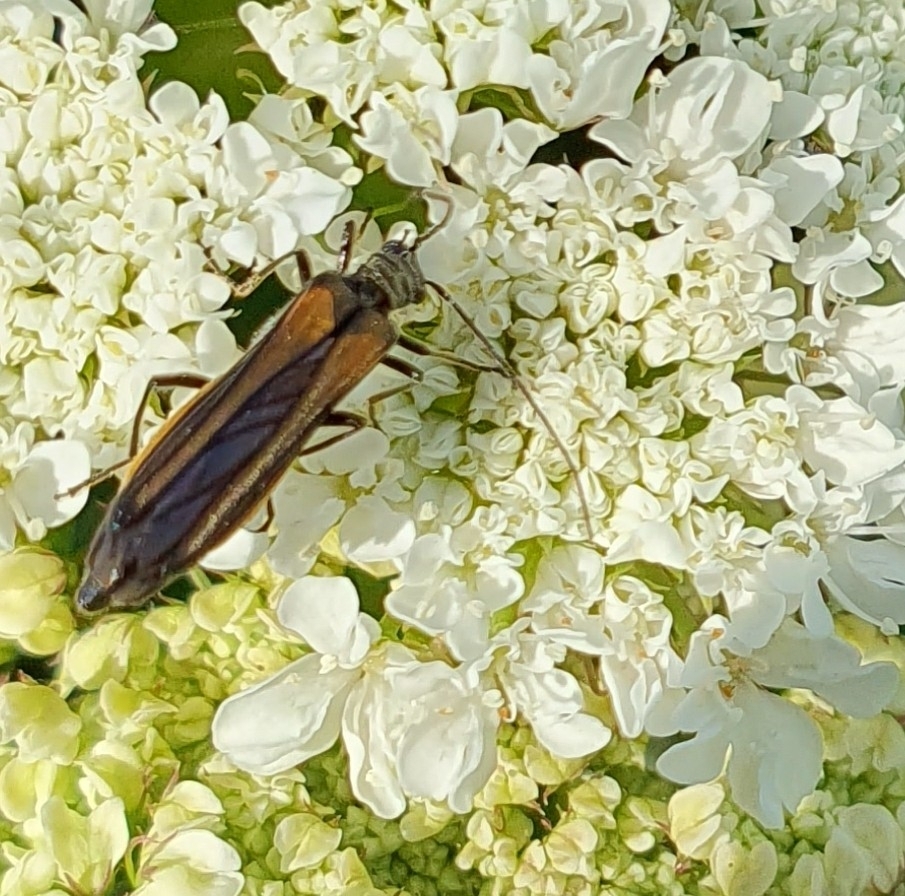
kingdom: Animalia
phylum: Arthropoda
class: Insecta
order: Coleoptera
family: Oedemeridae
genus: Oedemera
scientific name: Oedemera pthysica
